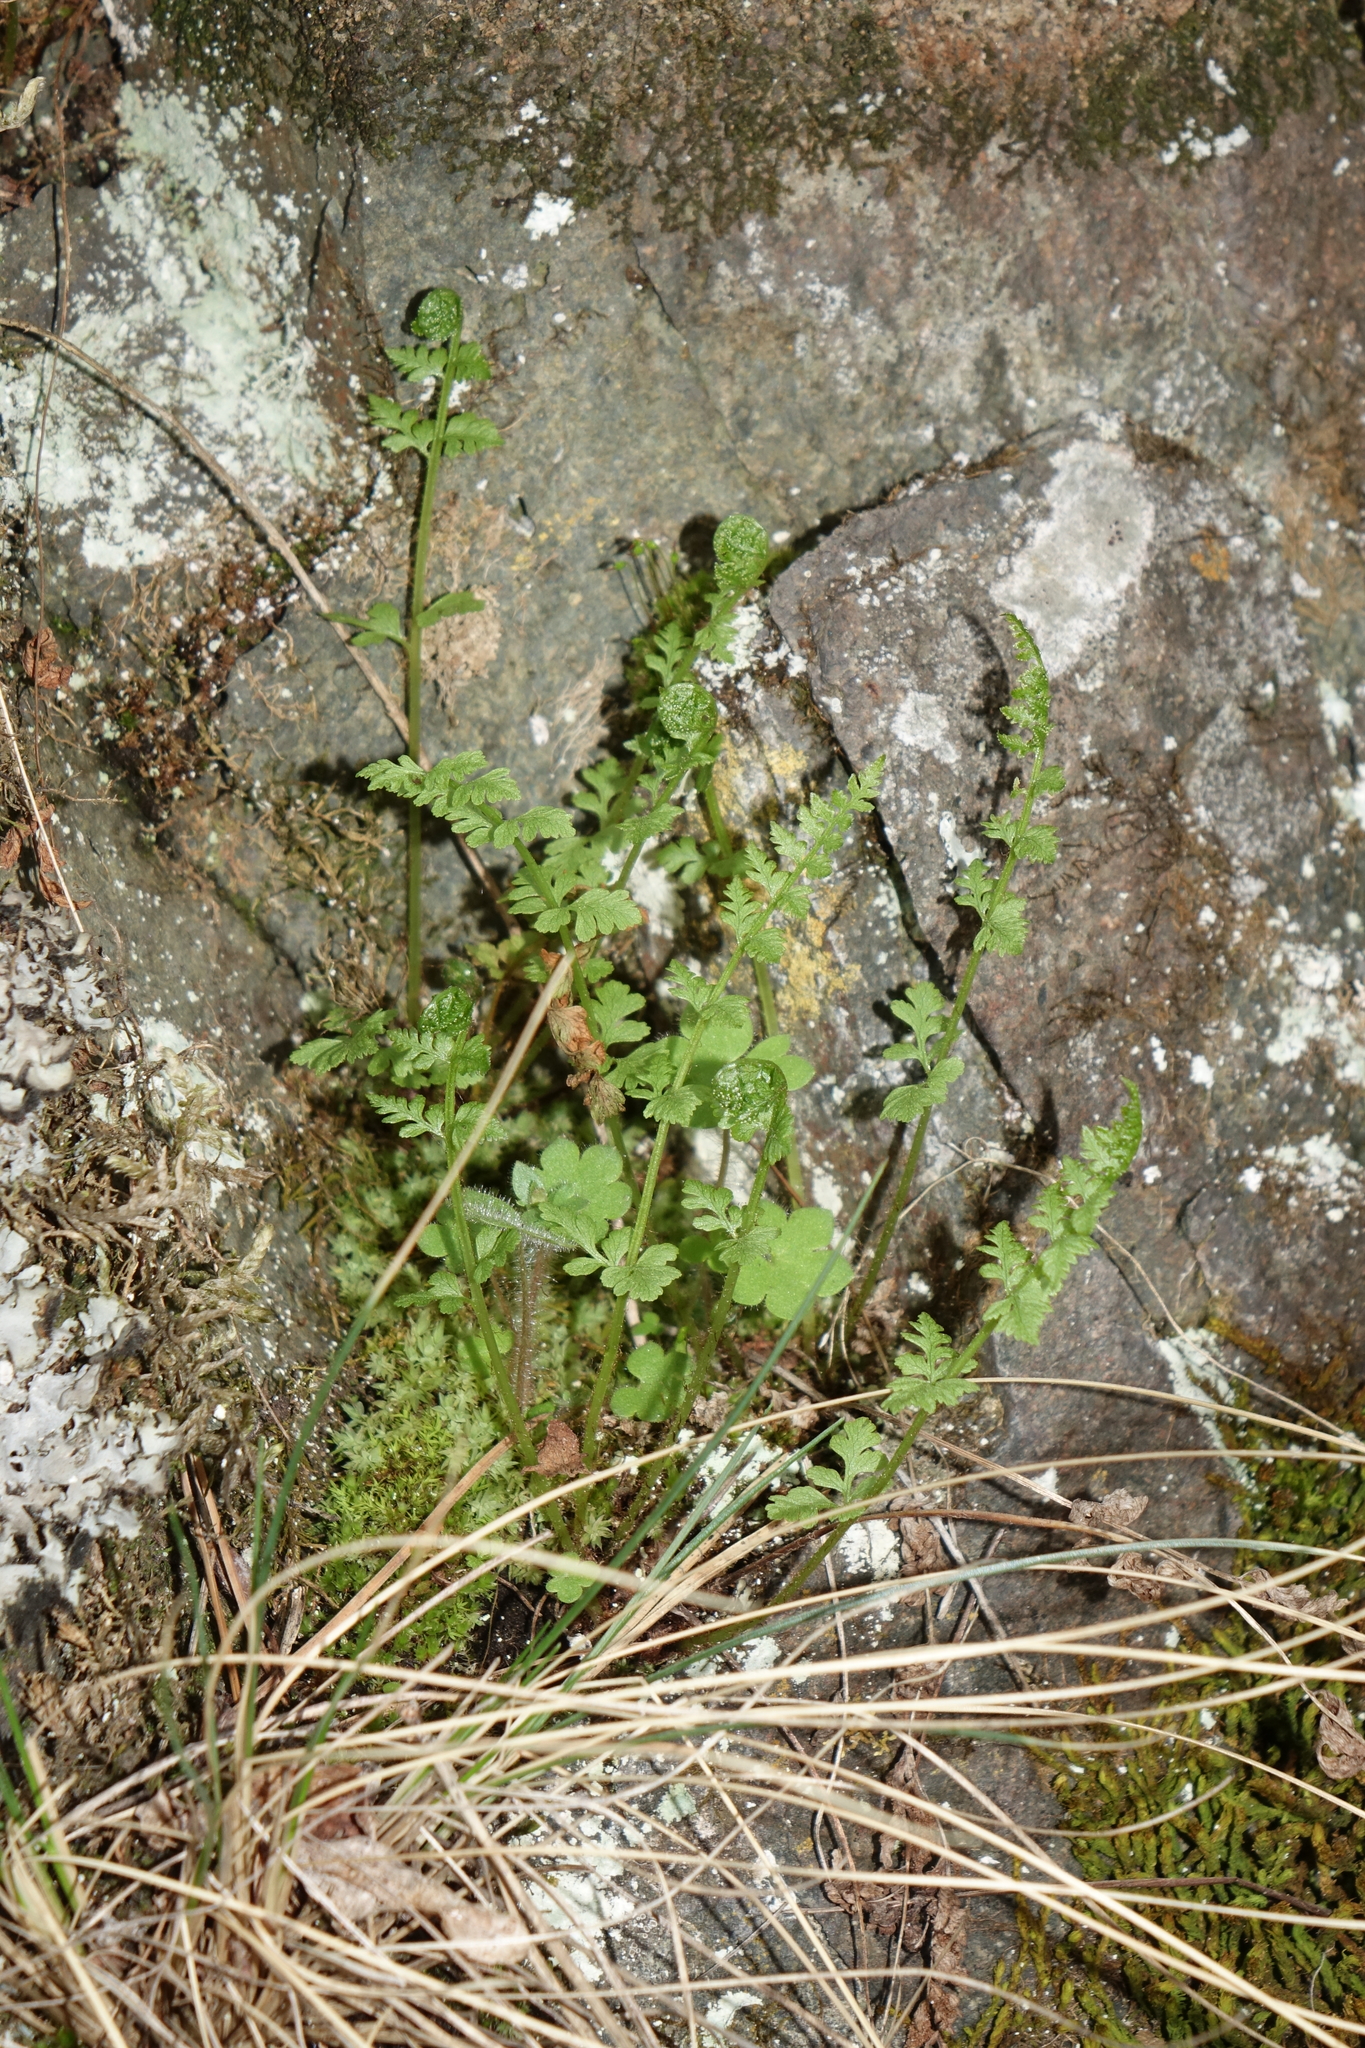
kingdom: Plantae
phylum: Tracheophyta
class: Polypodiopsida
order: Polypodiales
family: Cystopteridaceae
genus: Cystopteris
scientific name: Cystopteris fragilis
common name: Brittle bladder fern
